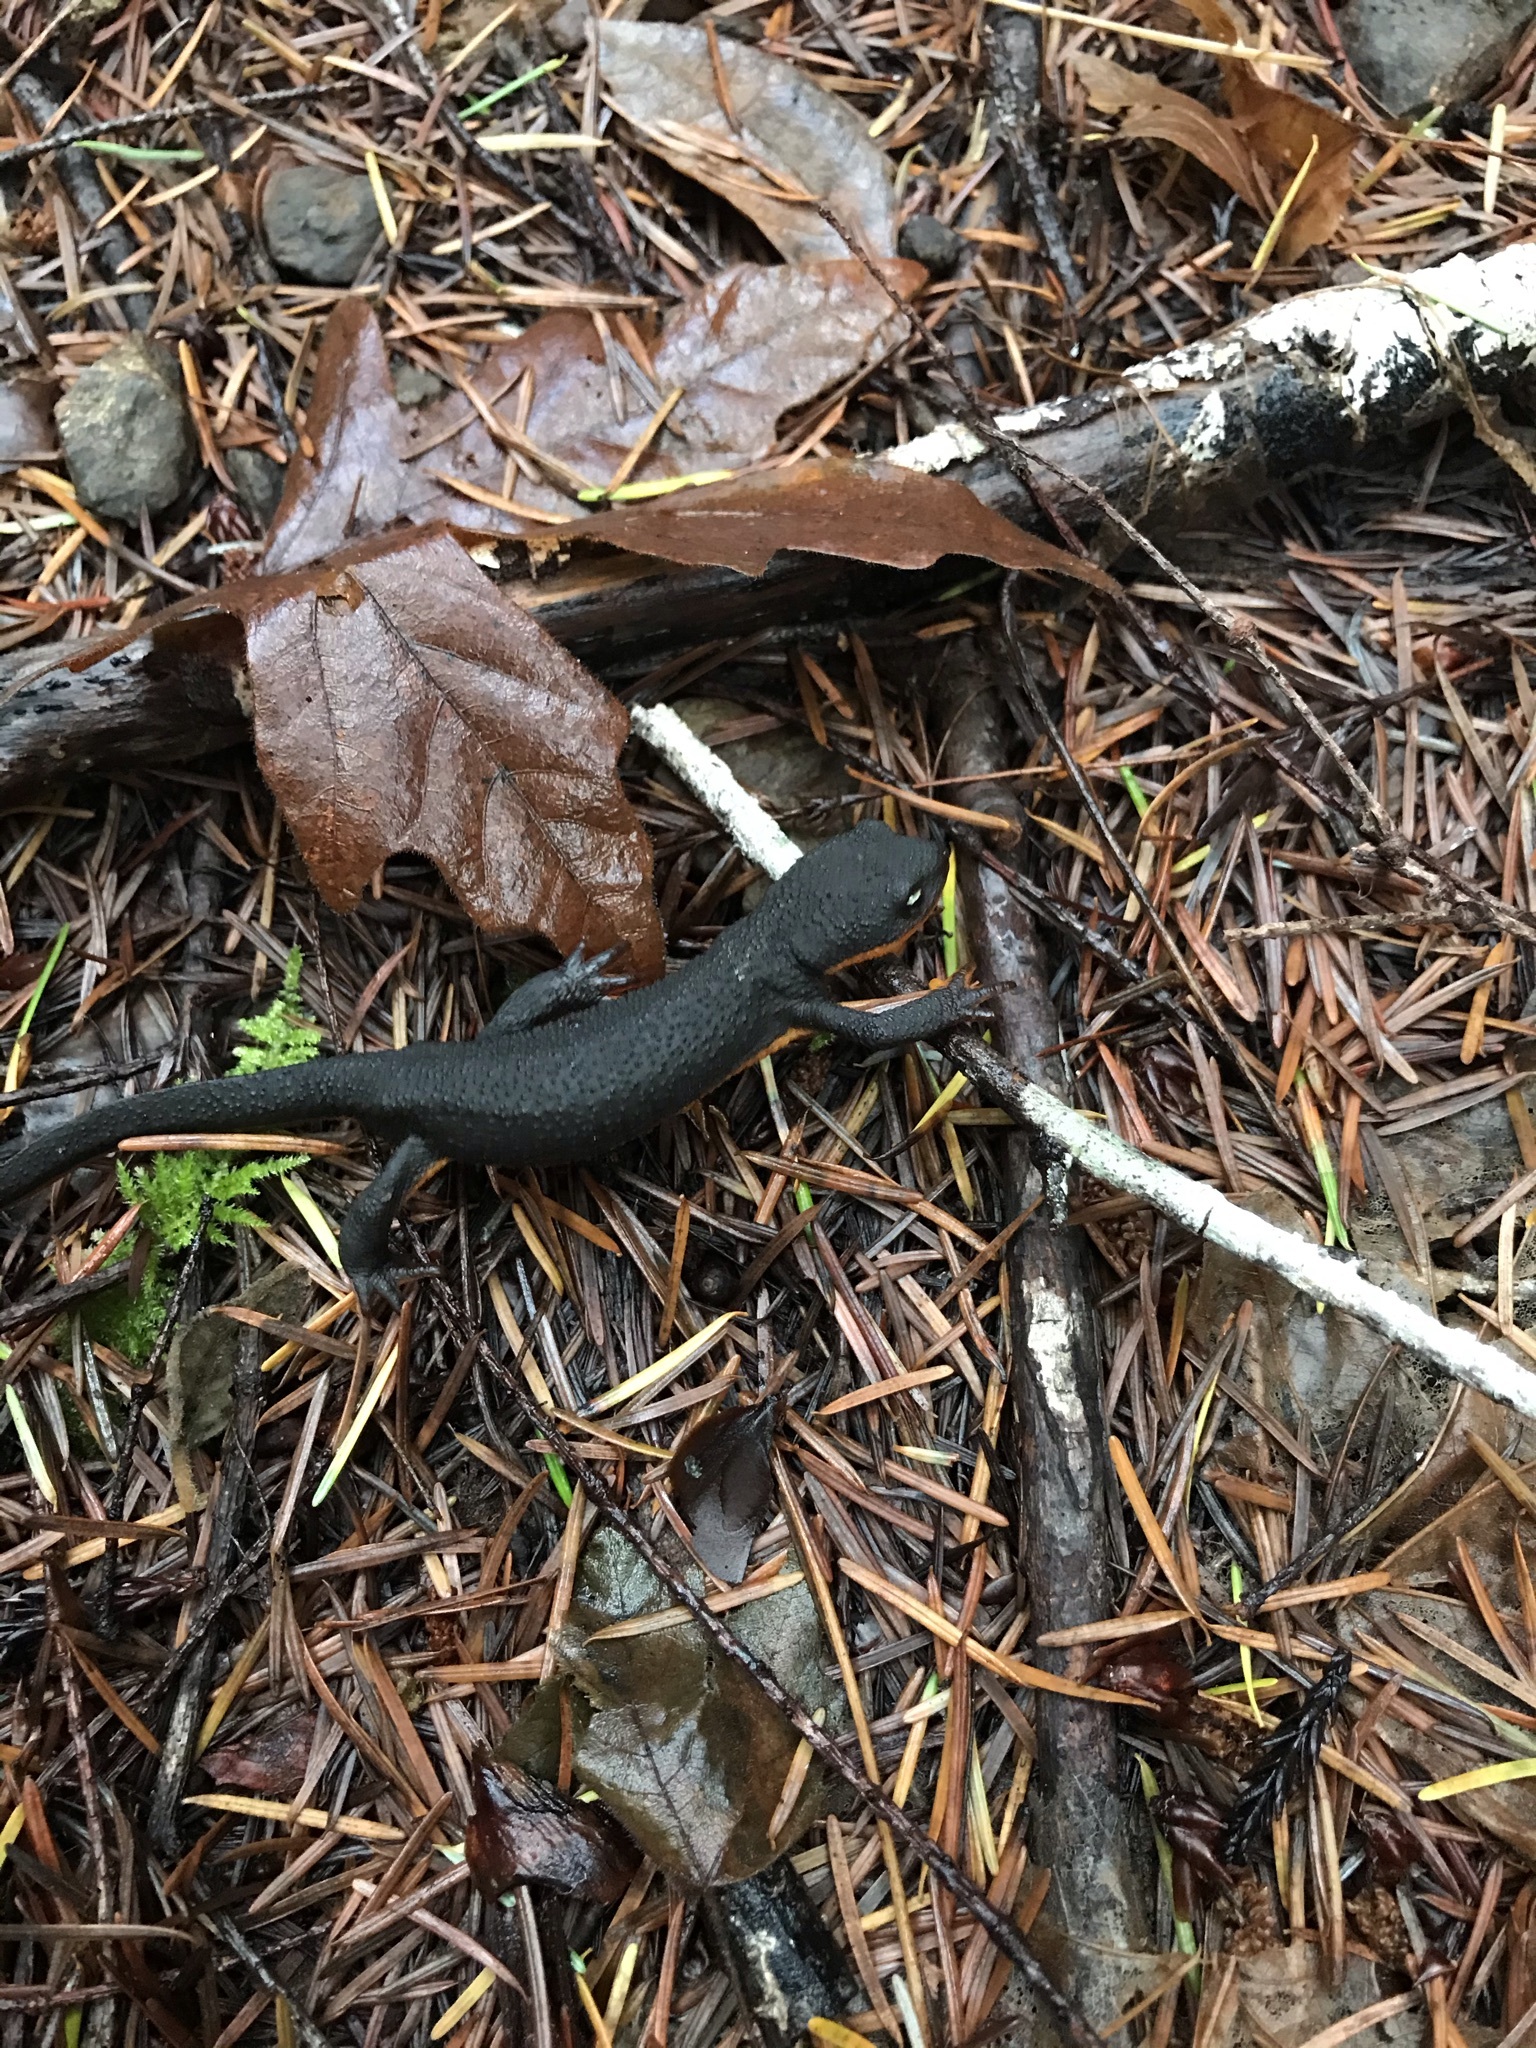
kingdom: Animalia
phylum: Chordata
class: Amphibia
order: Caudata
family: Salamandridae
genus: Taricha
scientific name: Taricha granulosa
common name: Roughskin newt
